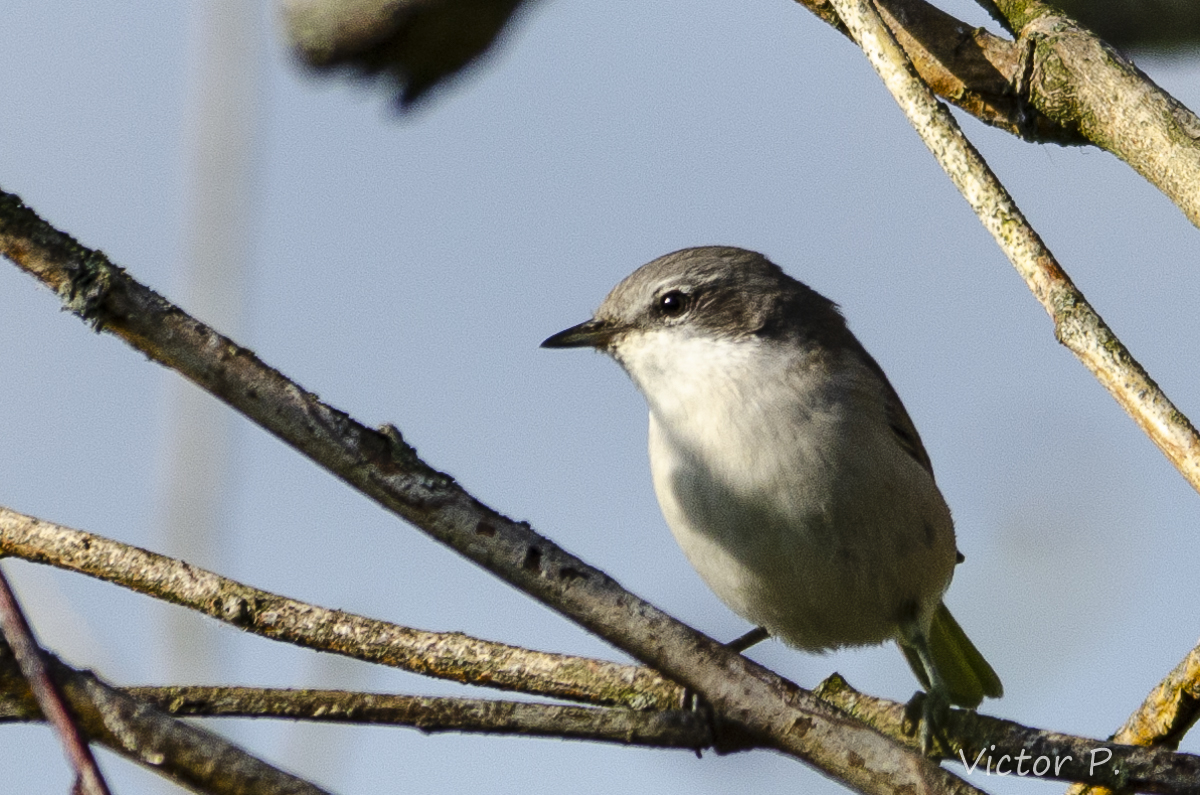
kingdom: Animalia
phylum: Chordata
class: Aves
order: Passeriformes
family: Sylviidae
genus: Sylvia
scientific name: Sylvia curruca
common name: Lesser whitethroat
